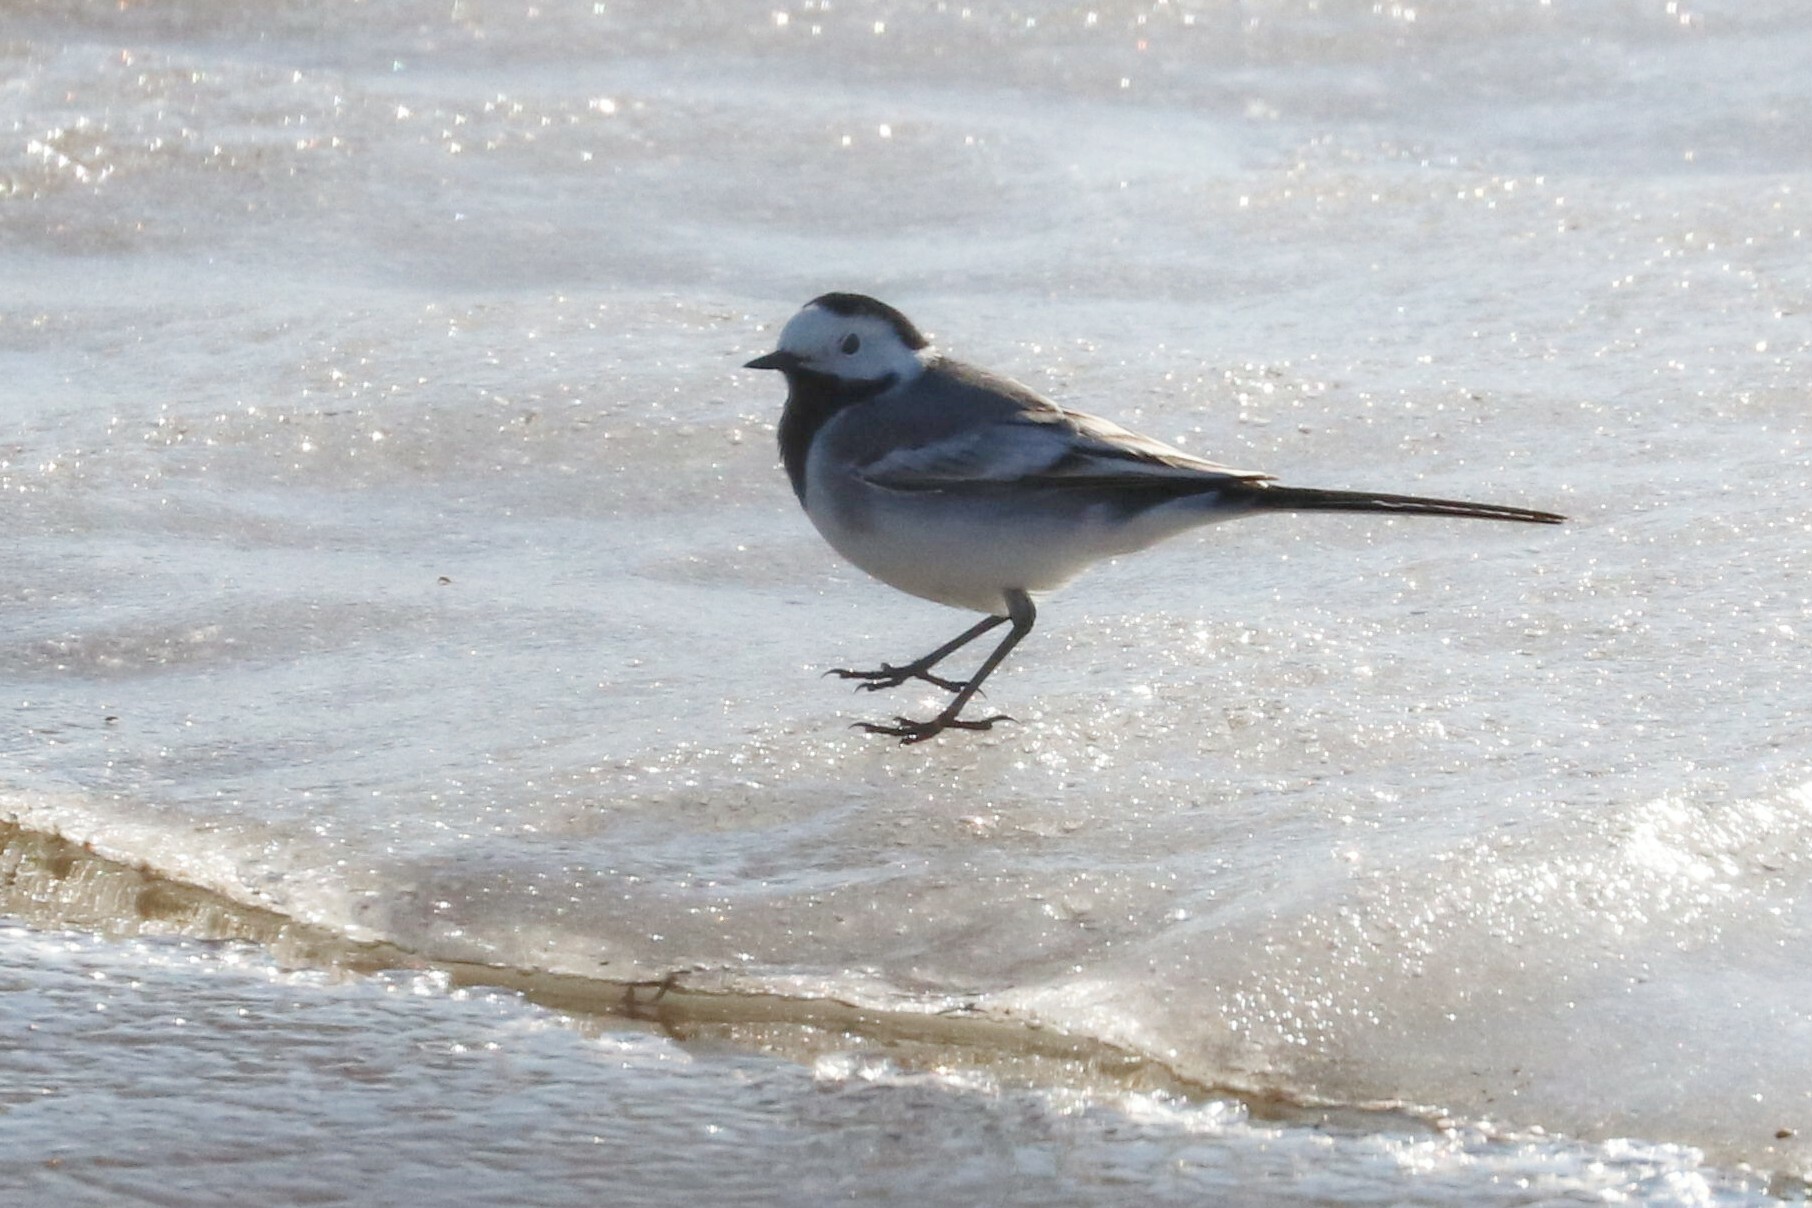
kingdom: Animalia
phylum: Chordata
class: Aves
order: Passeriformes
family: Motacillidae
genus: Motacilla
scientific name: Motacilla alba
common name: White wagtail
